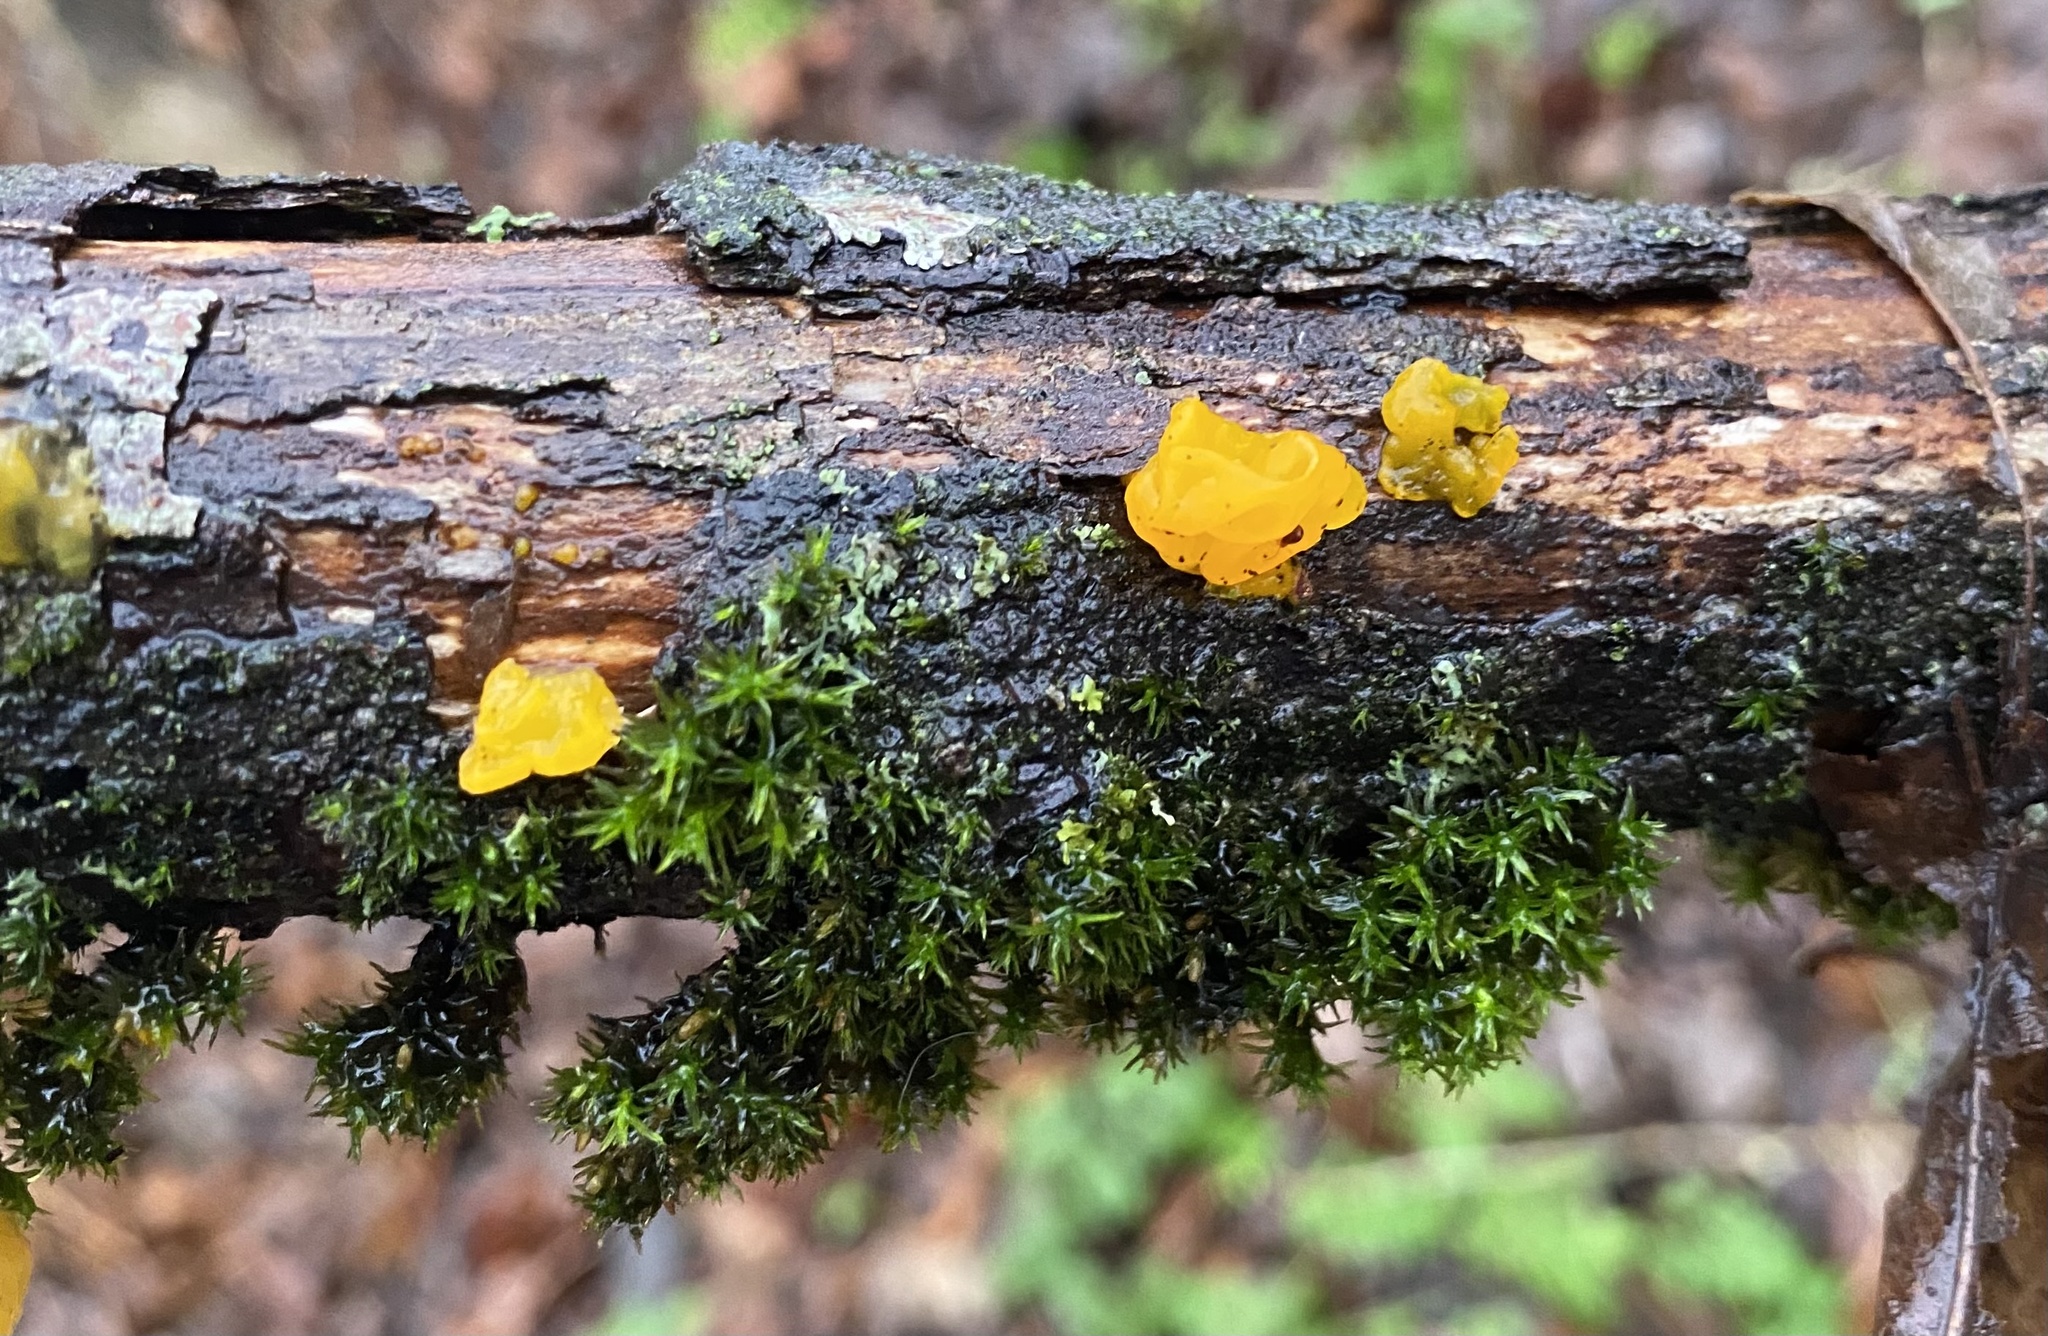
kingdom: Fungi
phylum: Basidiomycota
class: Tremellomycetes
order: Tremellales
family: Tremellaceae
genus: Tremella
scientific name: Tremella mesenterica
